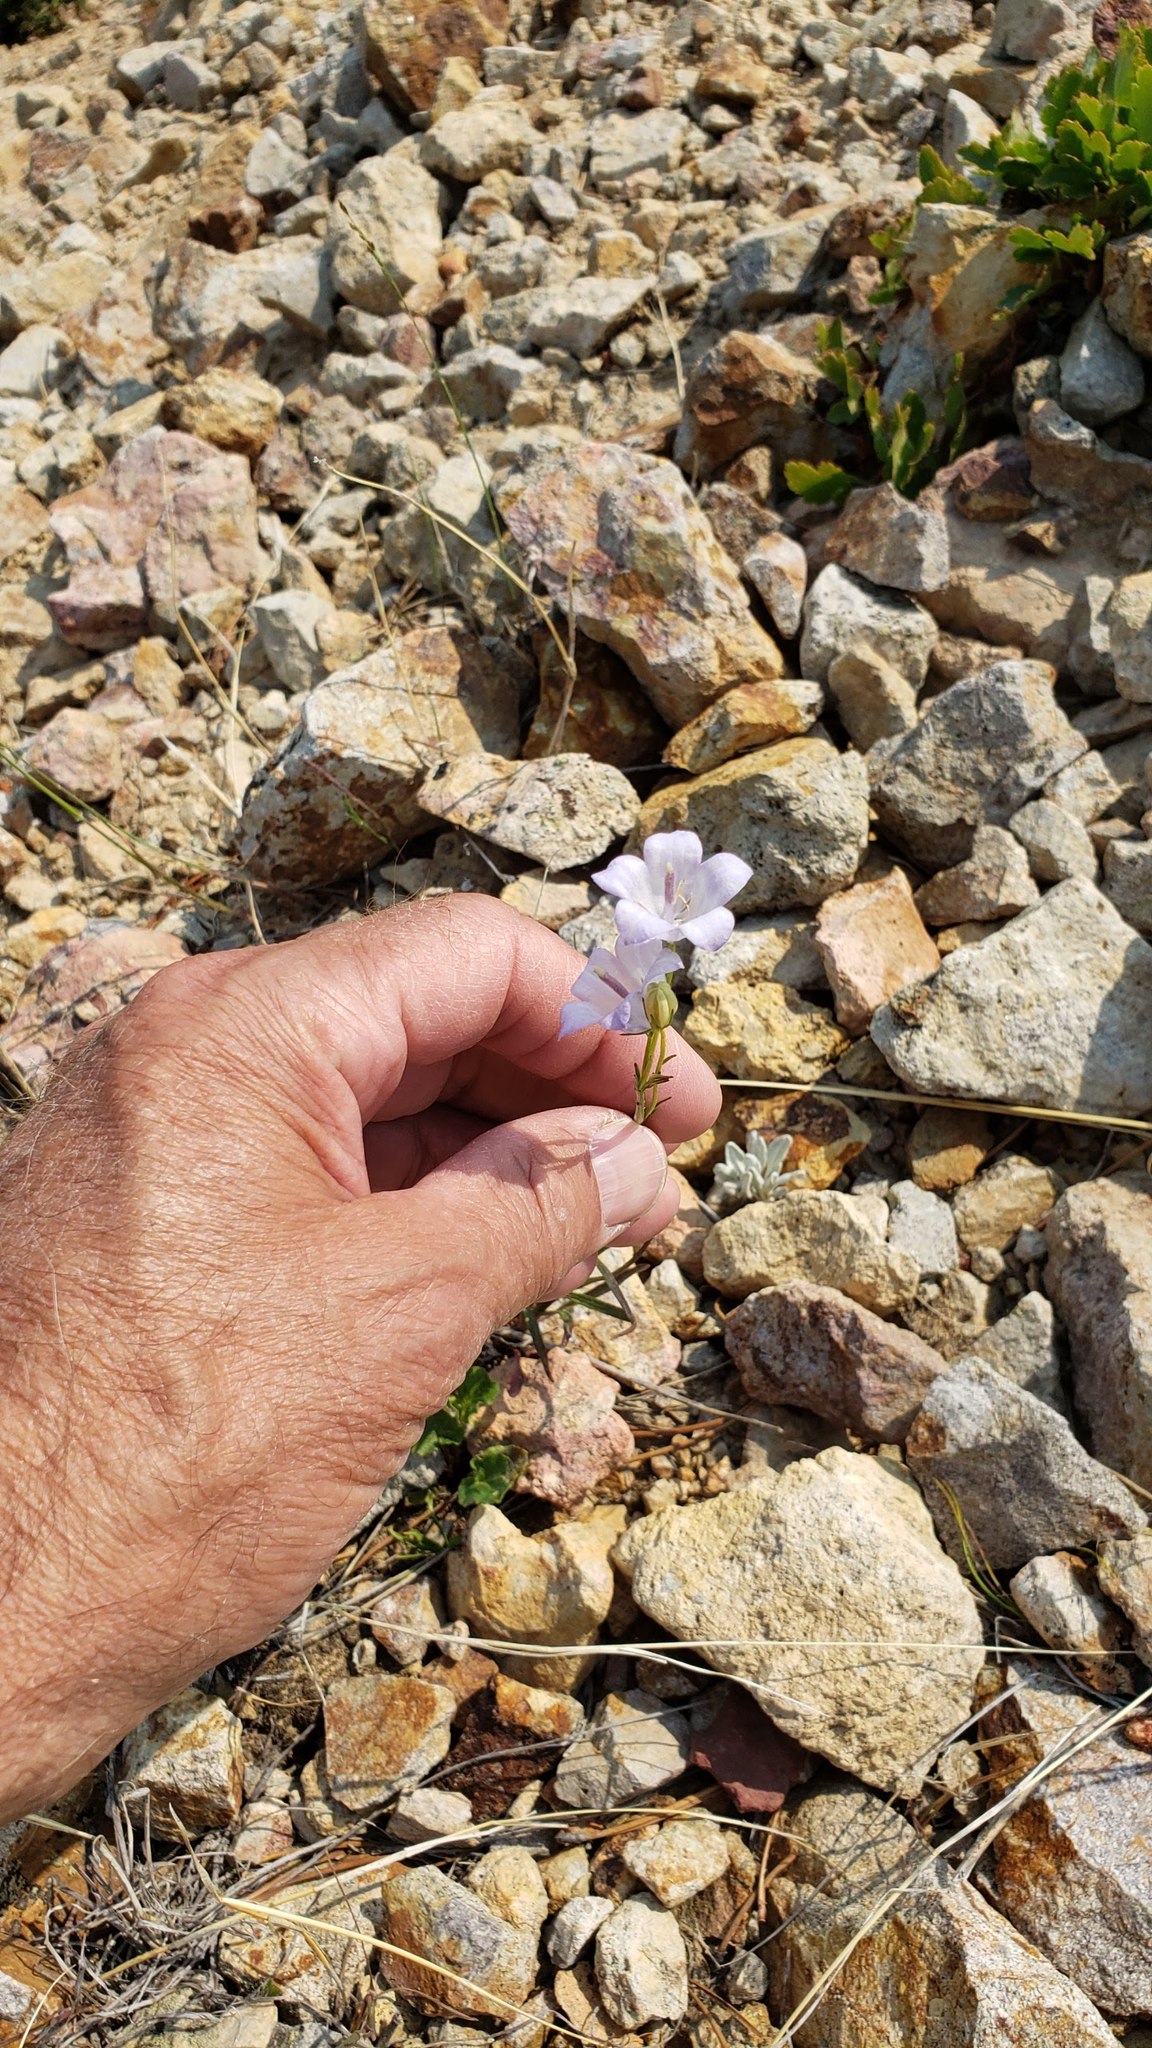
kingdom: Plantae
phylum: Tracheophyta
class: Magnoliopsida
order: Asterales
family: Campanulaceae
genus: Campanula
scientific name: Campanula alaskana
